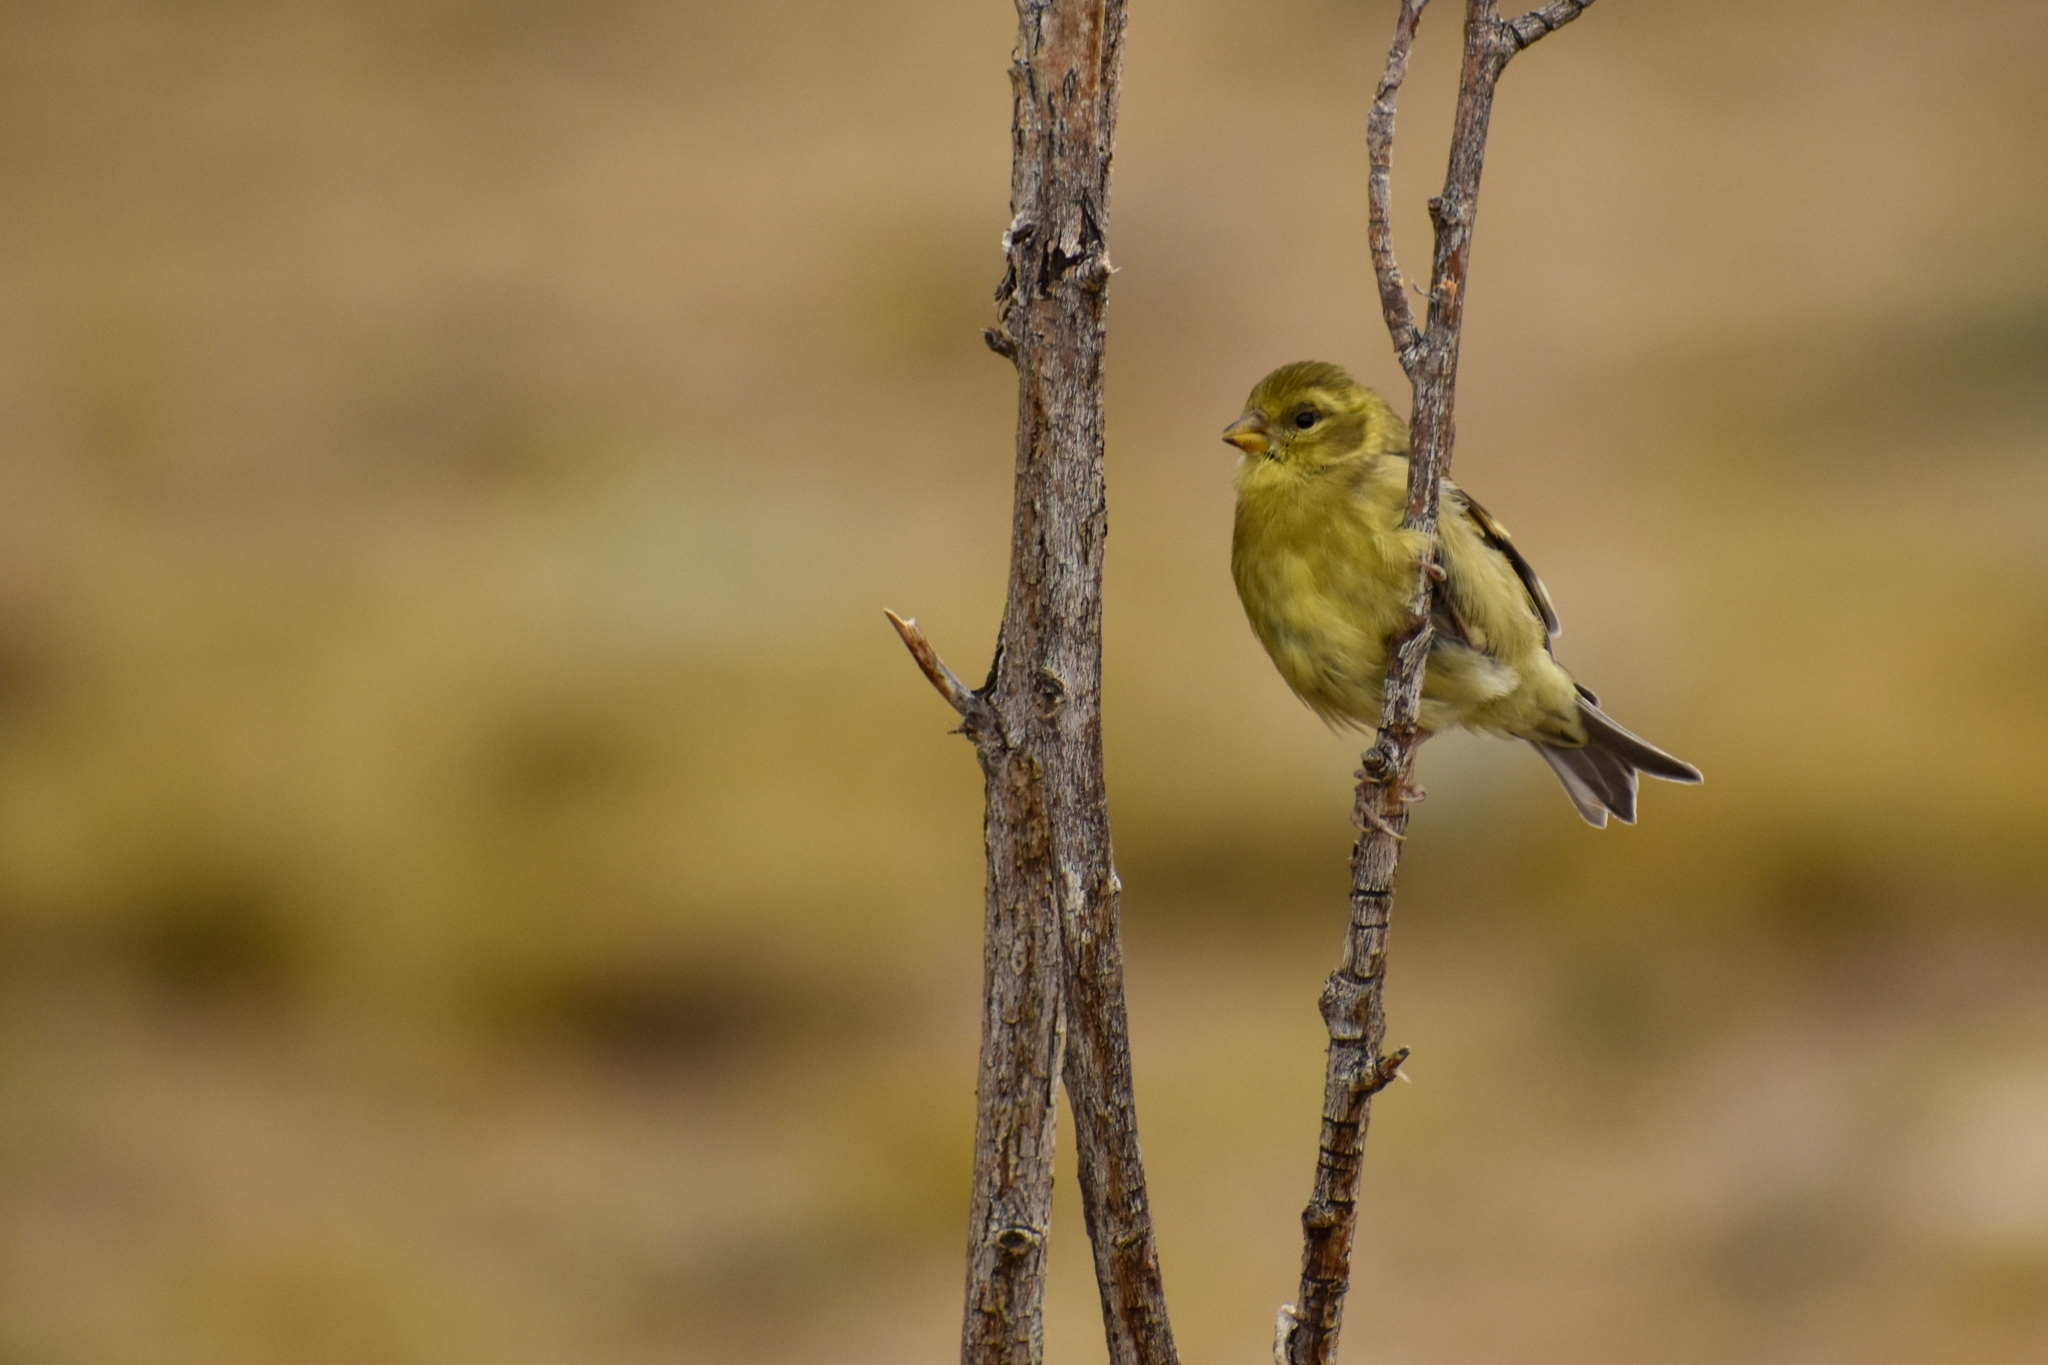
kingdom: Animalia
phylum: Chordata
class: Aves
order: Passeriformes
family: Fringillidae
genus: Spinus
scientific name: Spinus barbatus
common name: Black-chinned siskin
